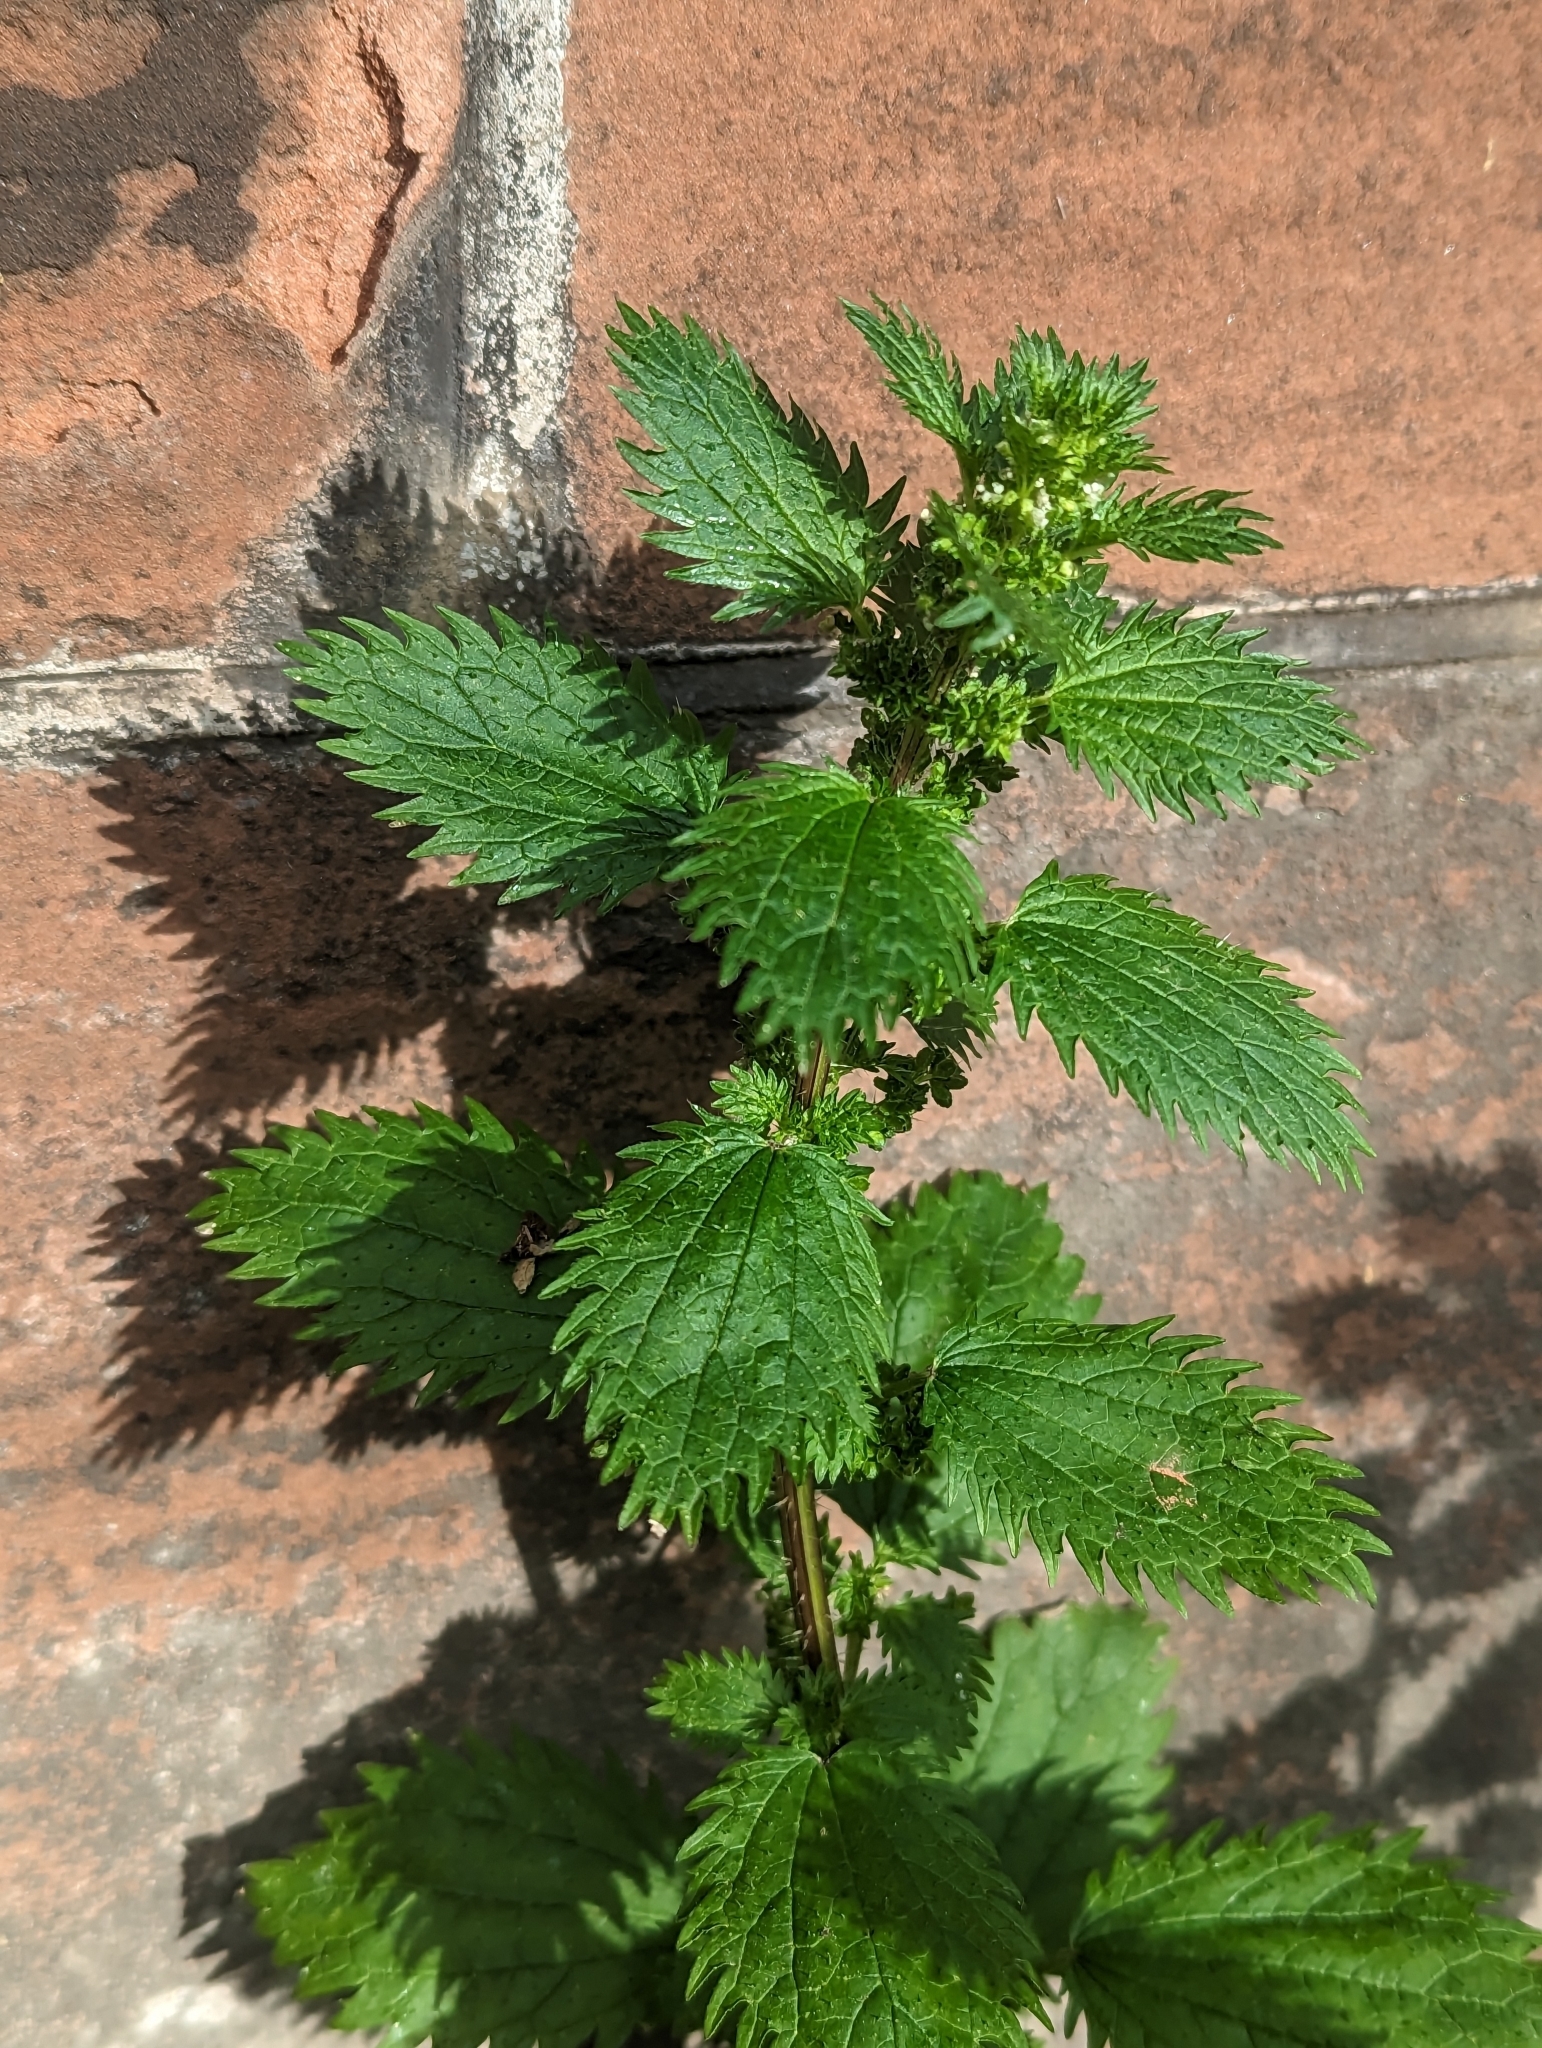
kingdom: Plantae
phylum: Tracheophyta
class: Magnoliopsida
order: Rosales
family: Urticaceae
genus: Urtica
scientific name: Urtica urens
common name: Dwarf nettle
